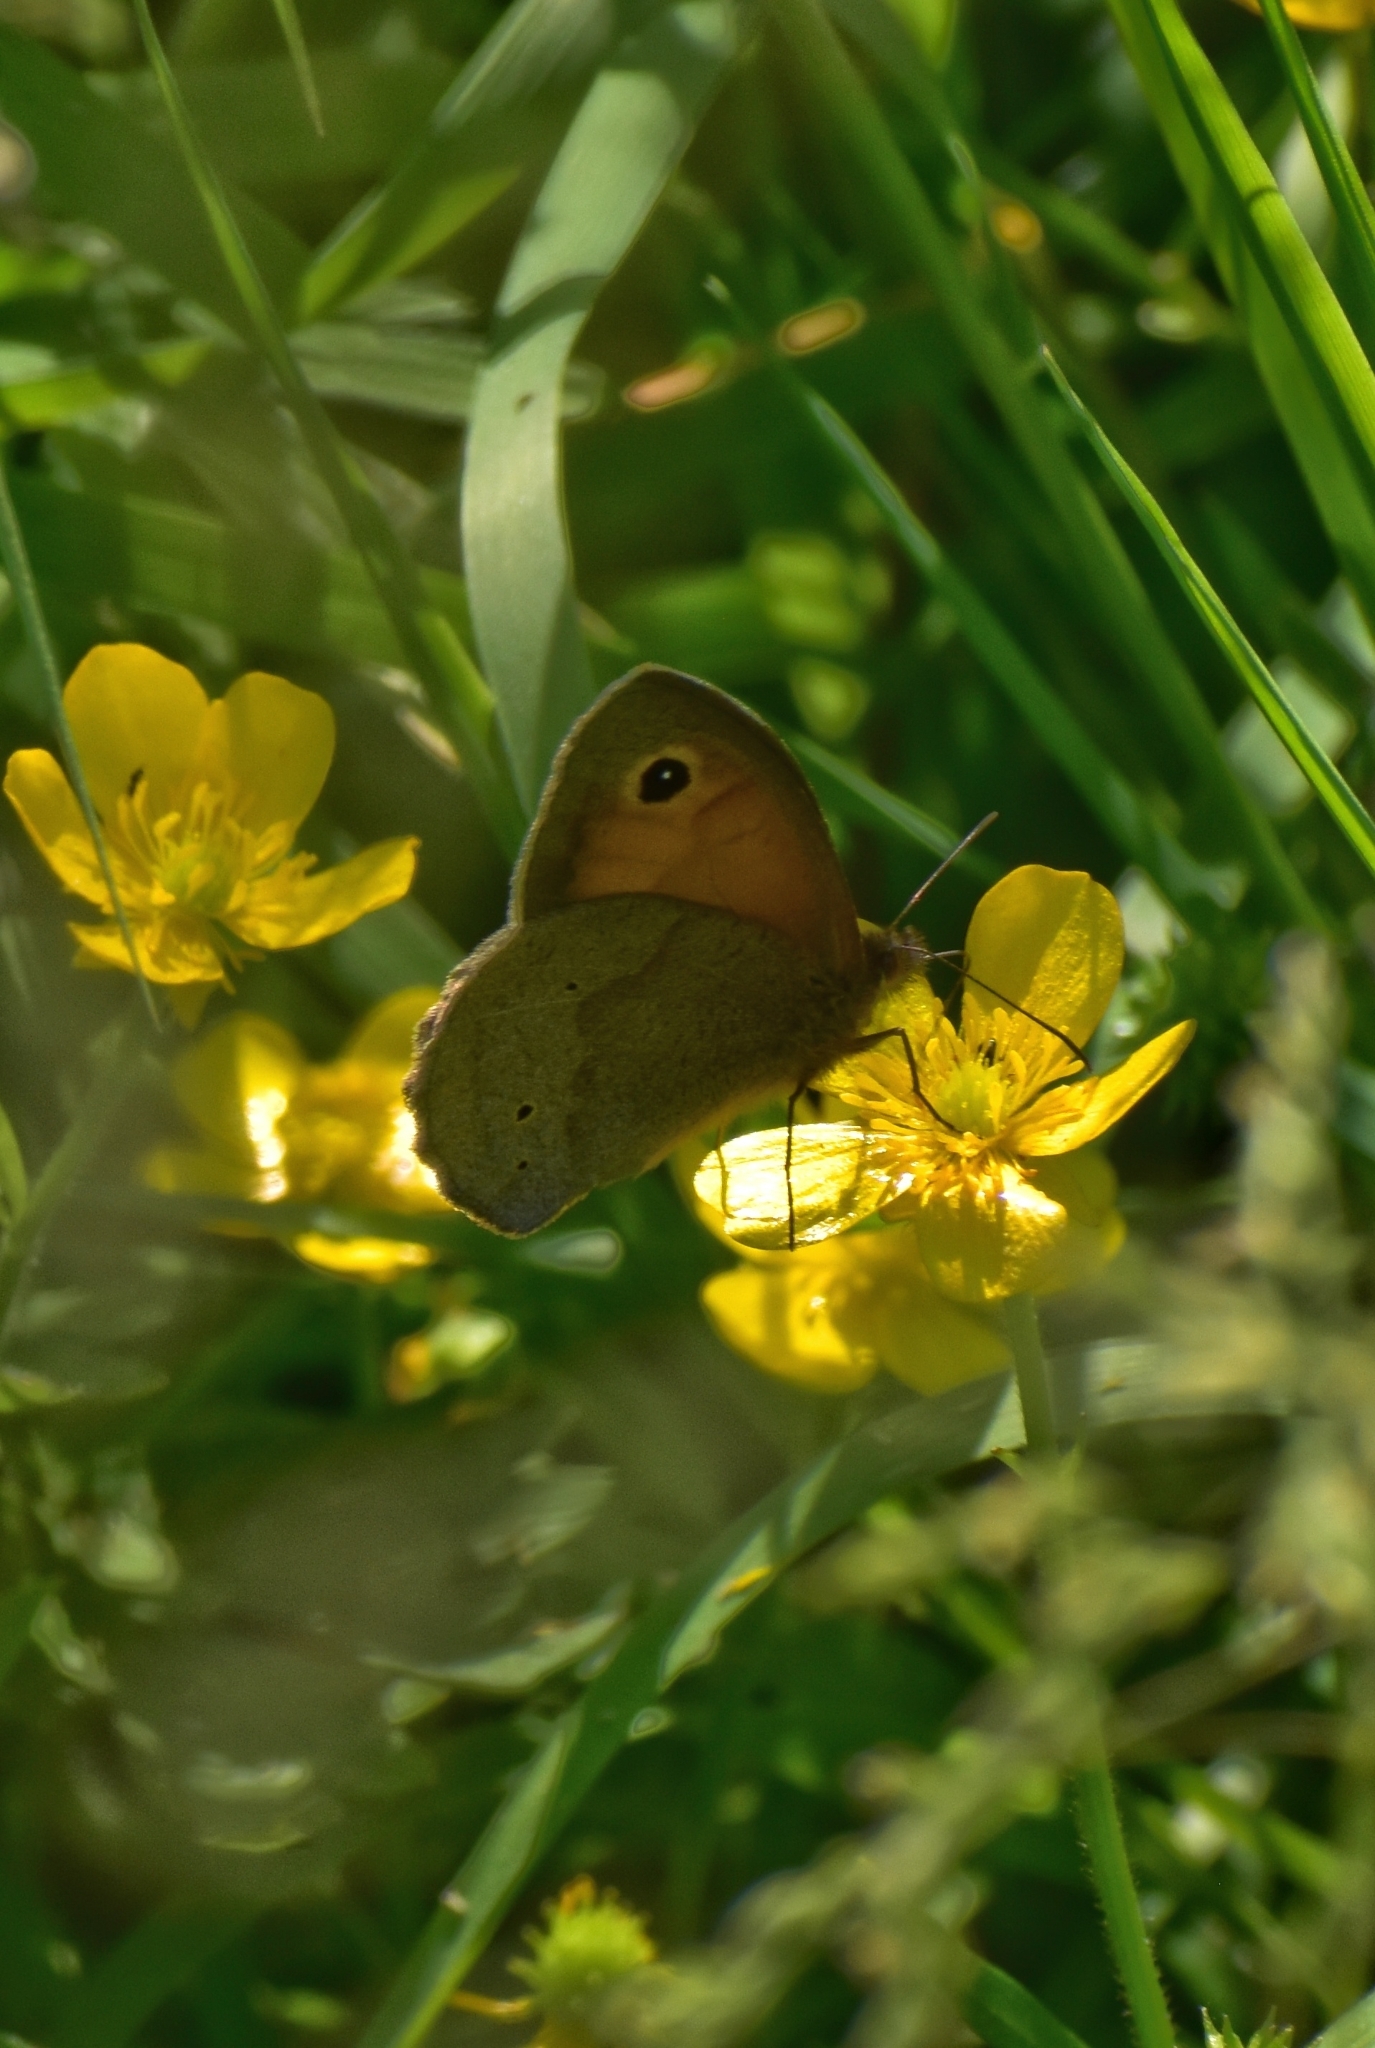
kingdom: Animalia
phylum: Arthropoda
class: Insecta
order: Lepidoptera
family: Nymphalidae
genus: Maniola
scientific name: Maniola jurtina
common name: Meadow brown
